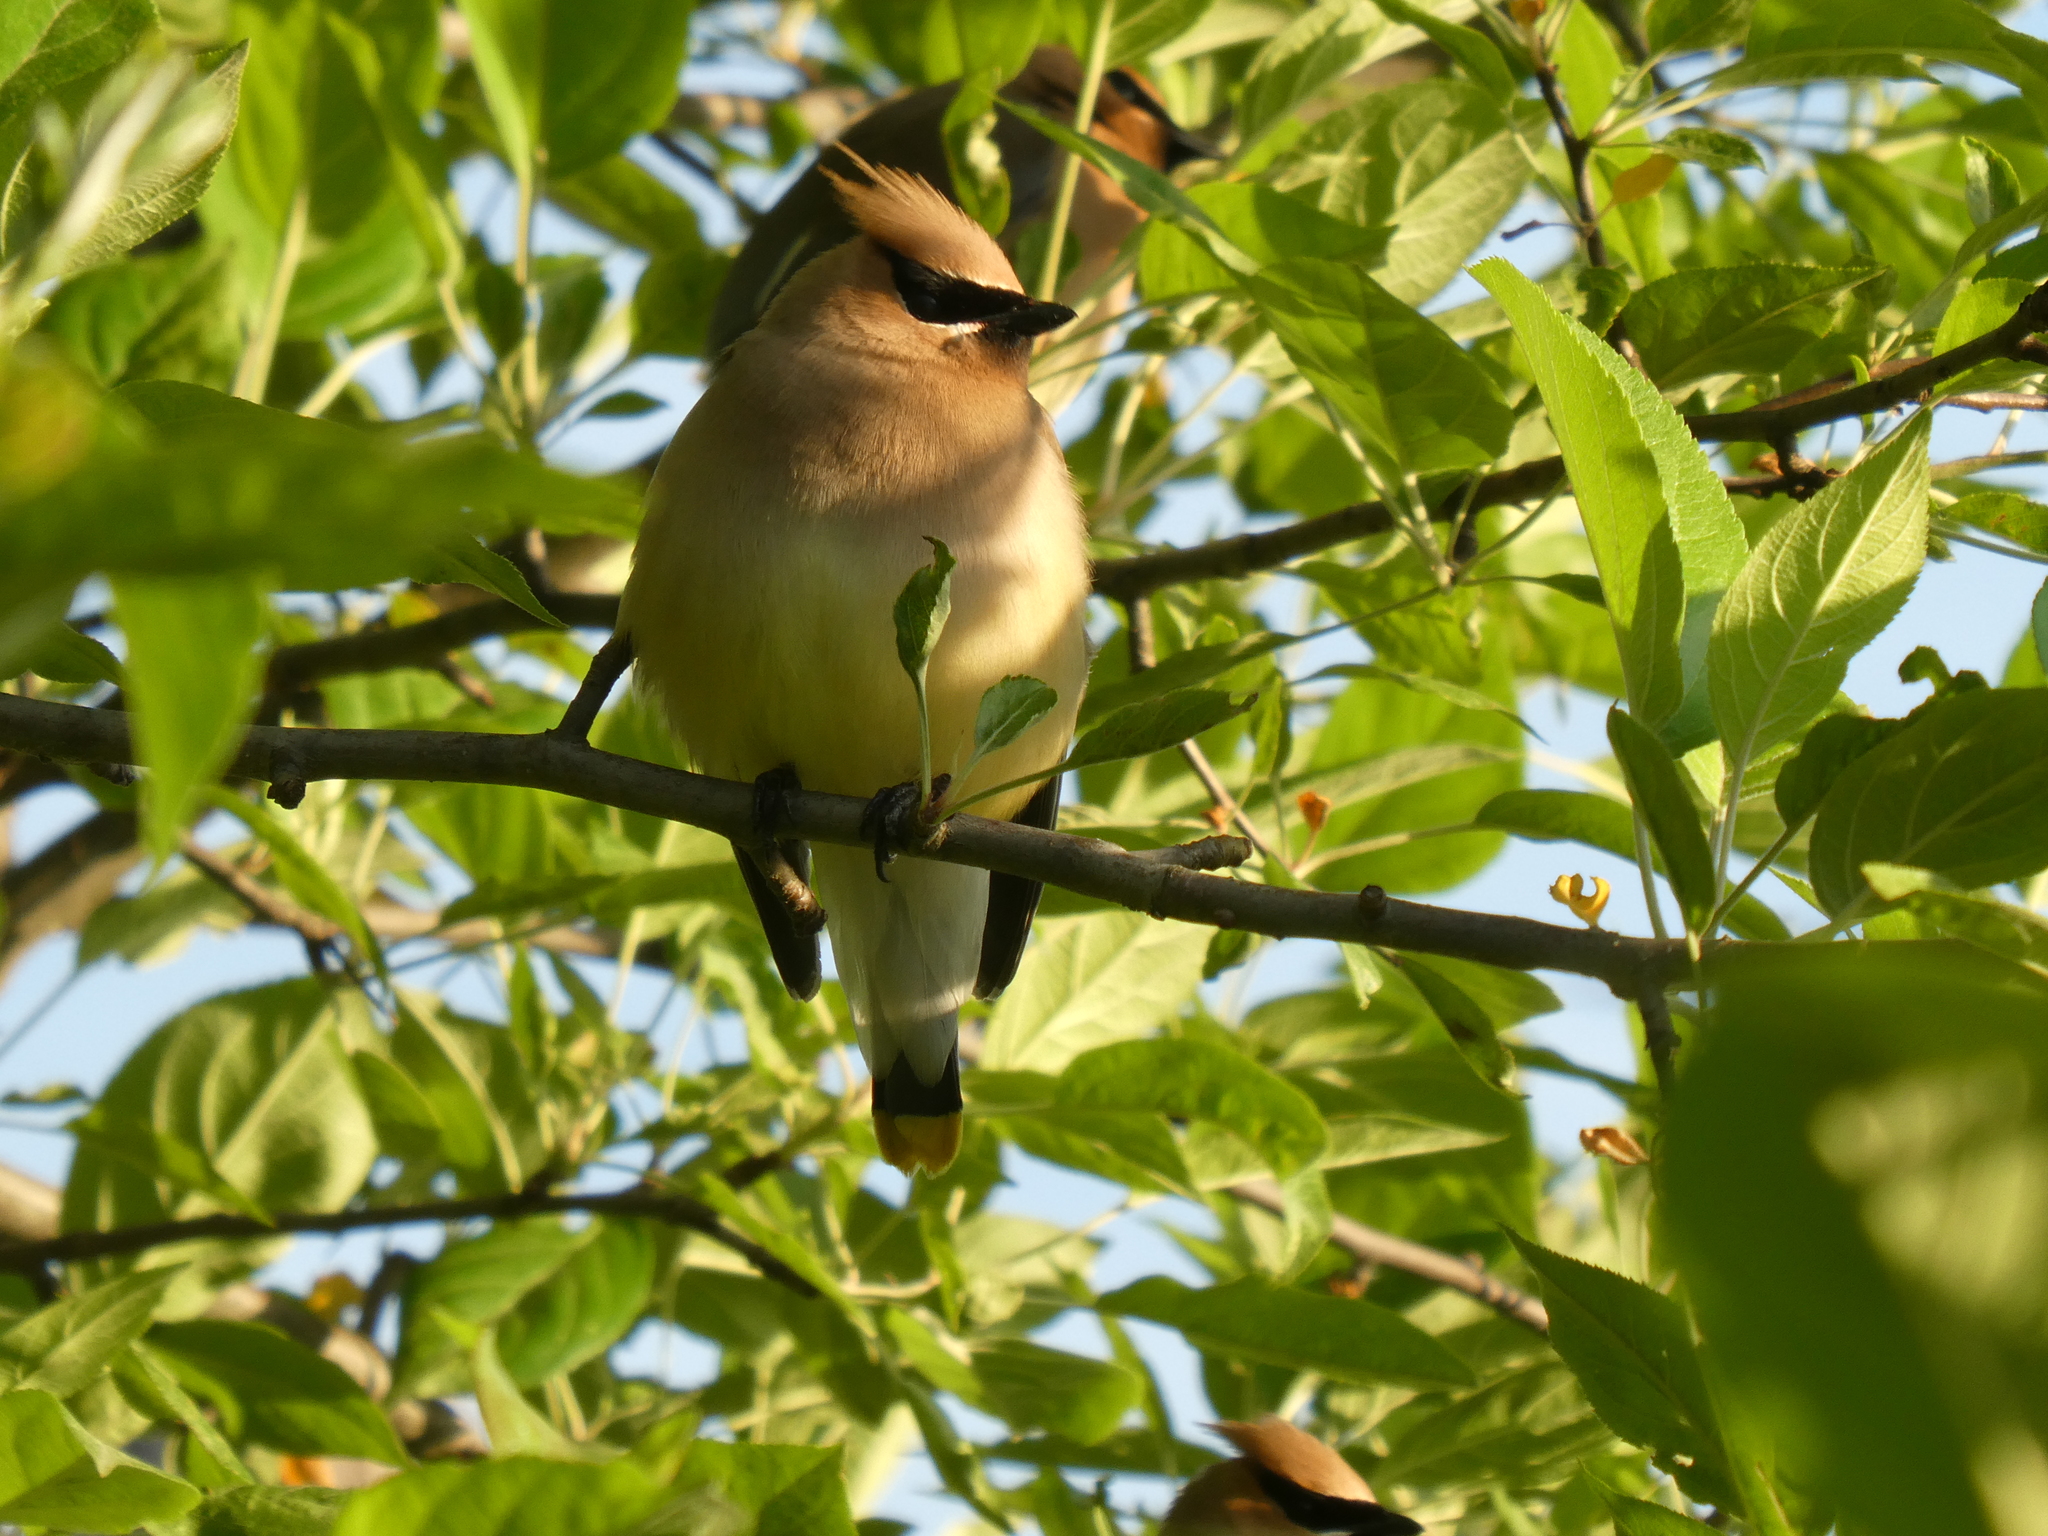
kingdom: Animalia
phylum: Chordata
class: Aves
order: Passeriformes
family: Bombycillidae
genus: Bombycilla
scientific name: Bombycilla cedrorum
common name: Cedar waxwing
